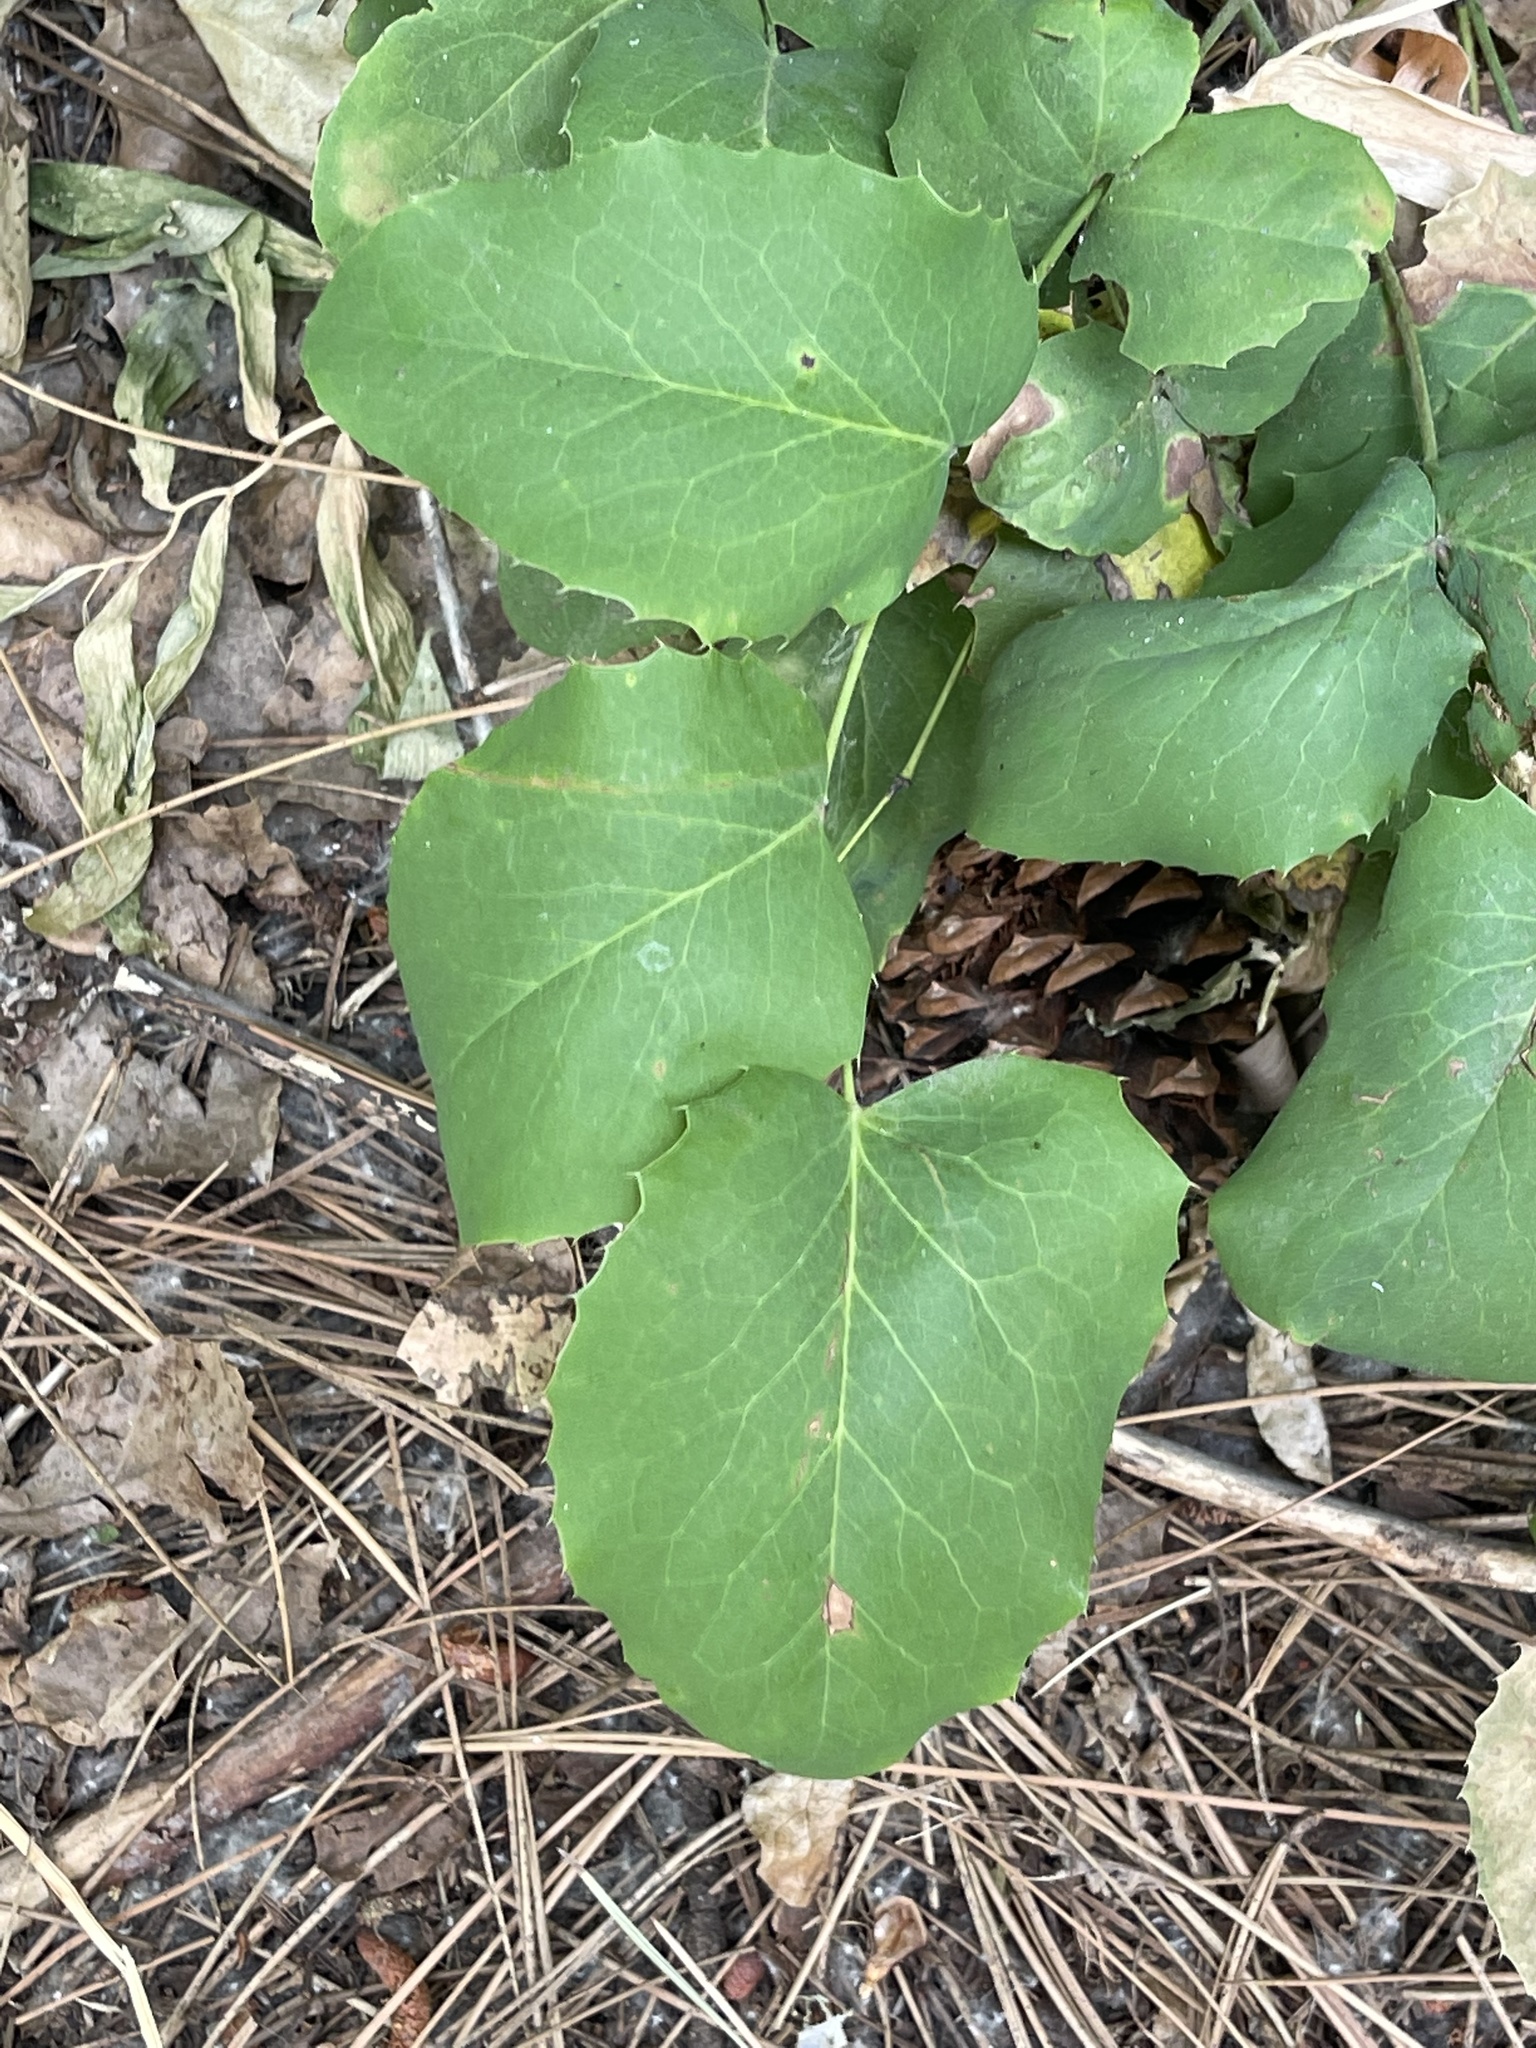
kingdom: Plantae
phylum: Tracheophyta
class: Magnoliopsida
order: Ranunculales
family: Berberidaceae
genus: Mahonia
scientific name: Mahonia repens
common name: Creeping oregon-grape
